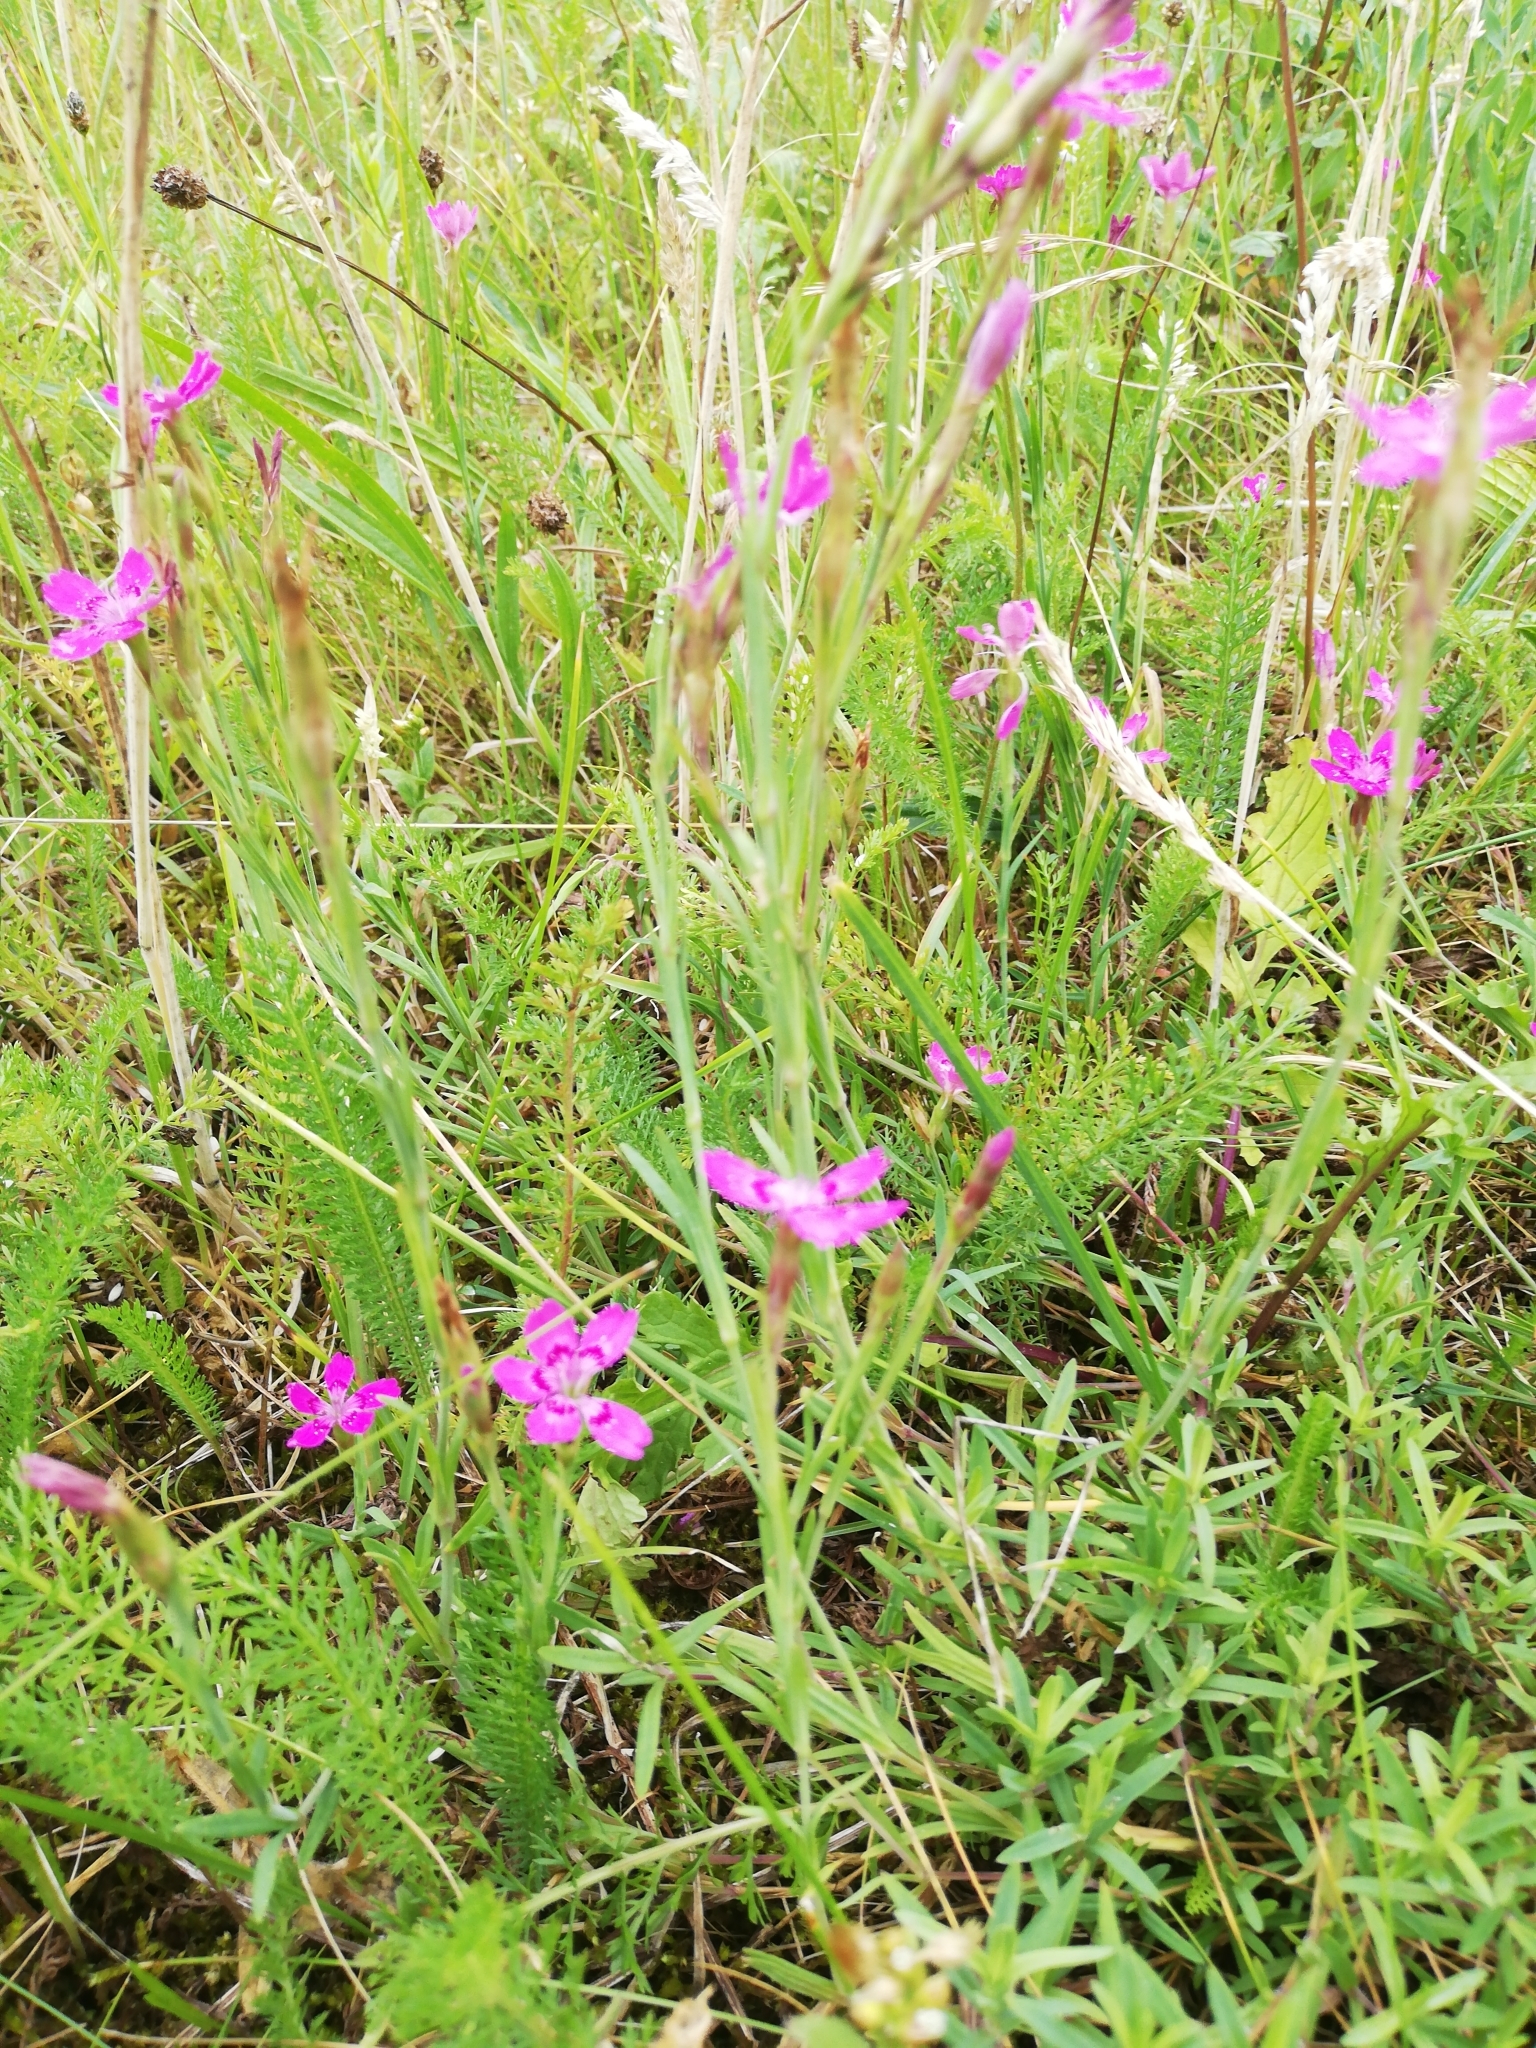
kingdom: Plantae
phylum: Tracheophyta
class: Magnoliopsida
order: Caryophyllales
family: Caryophyllaceae
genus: Dianthus
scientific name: Dianthus deltoides
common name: Maiden pink
